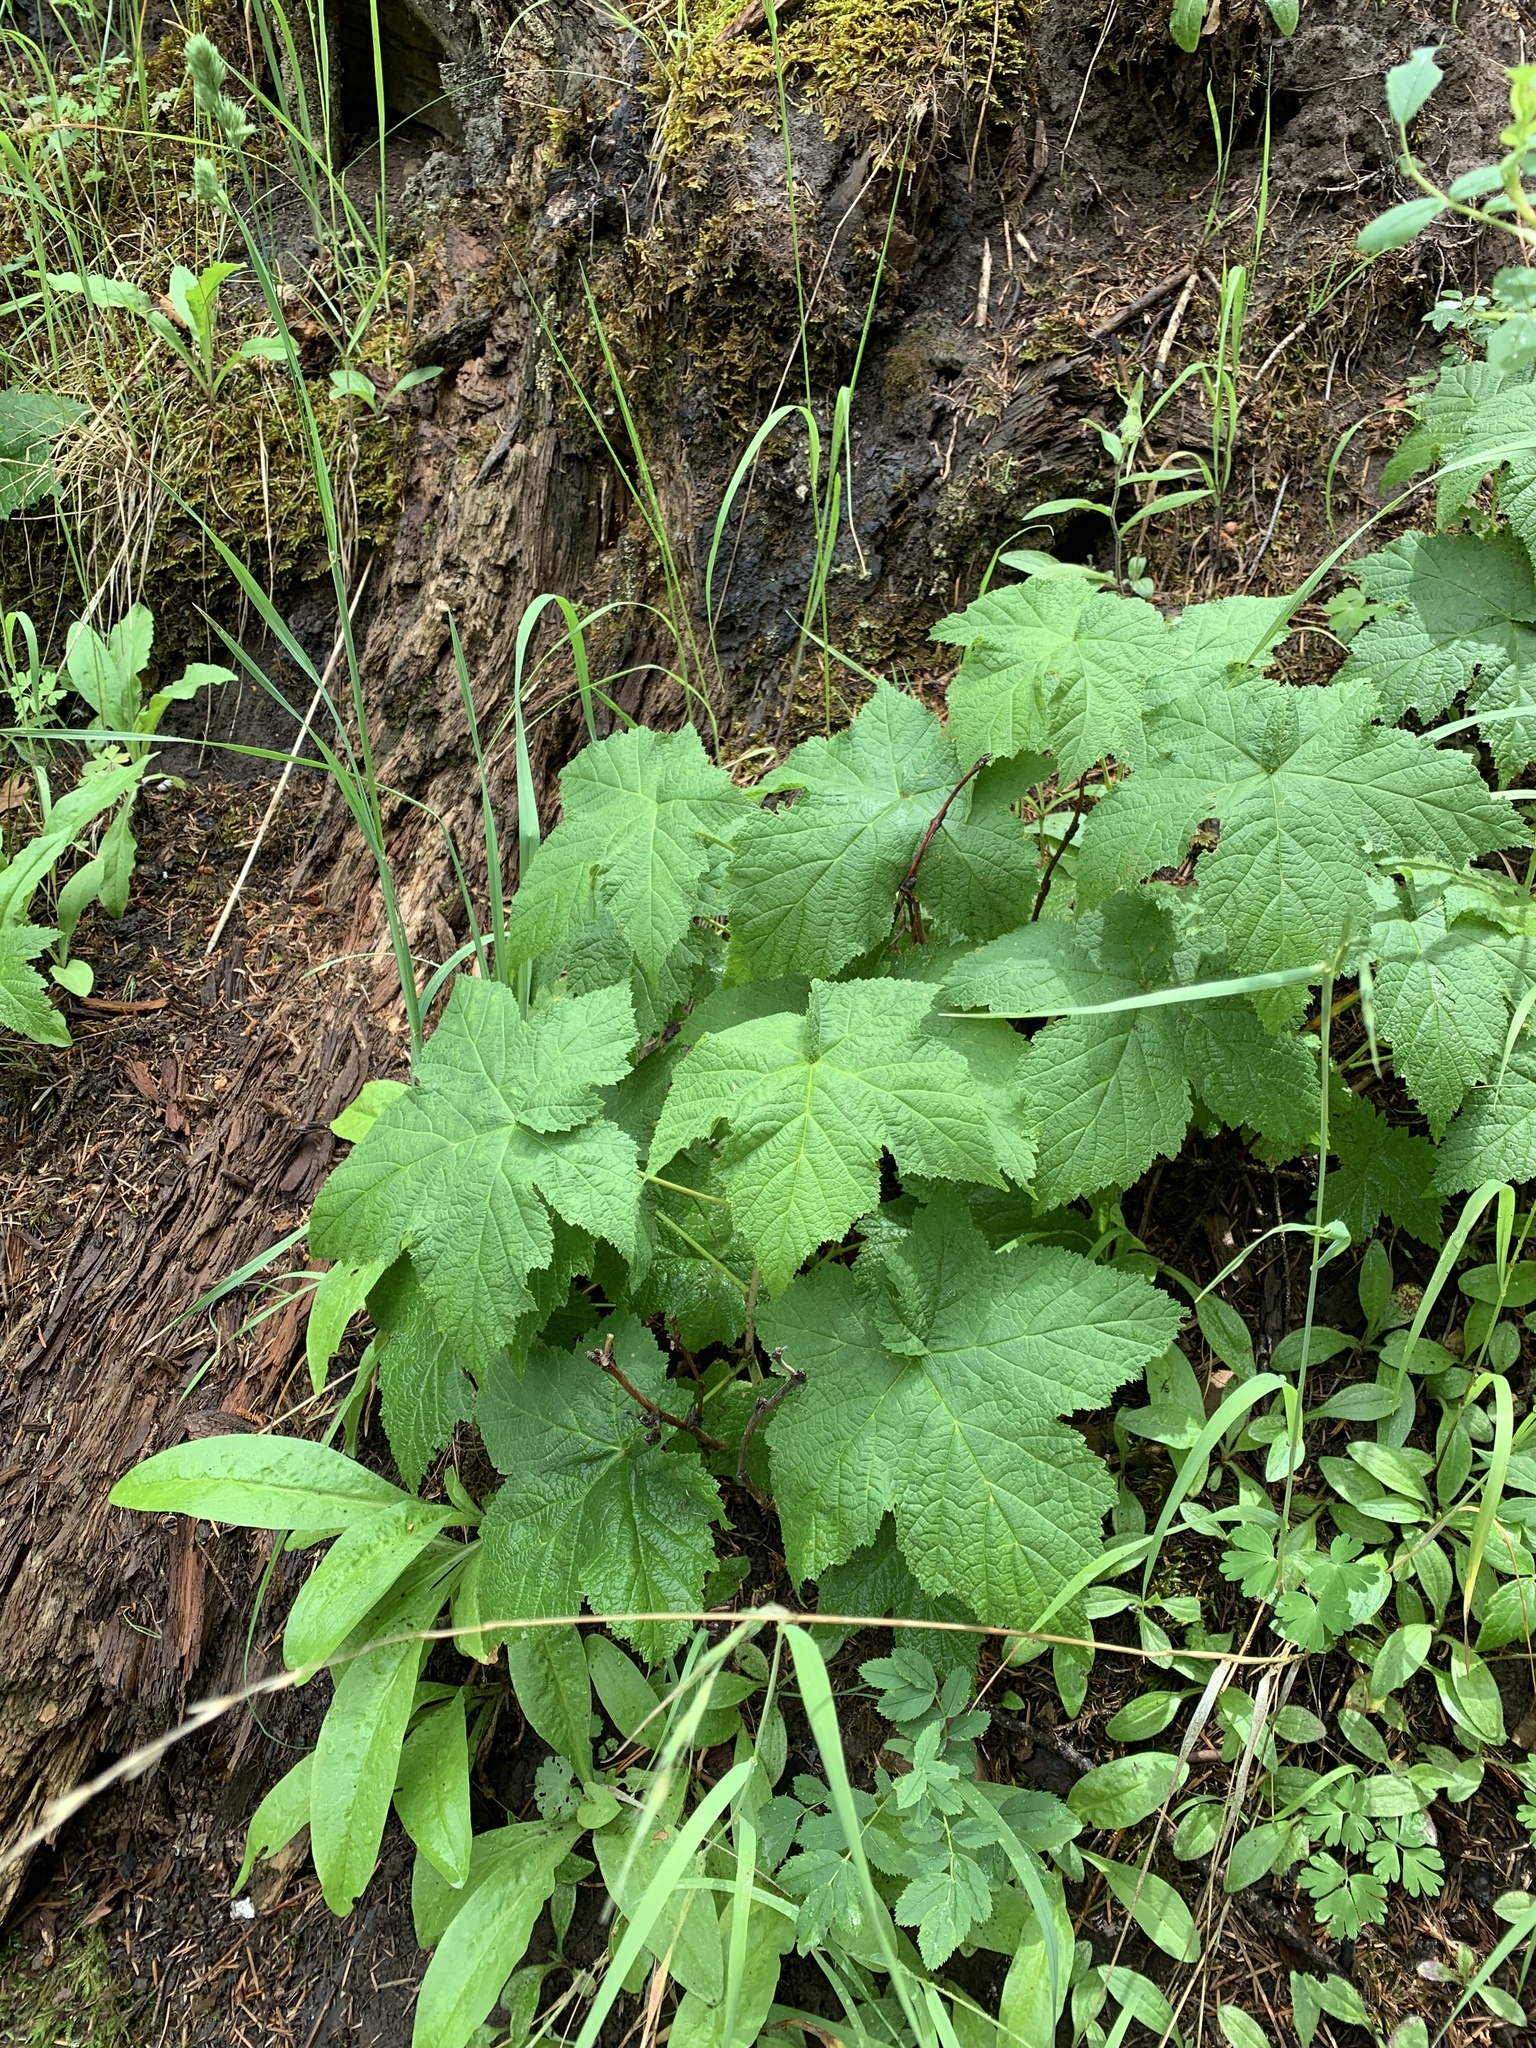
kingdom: Plantae
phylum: Tracheophyta
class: Magnoliopsida
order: Rosales
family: Rosaceae
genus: Rubus
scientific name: Rubus parviflorus
